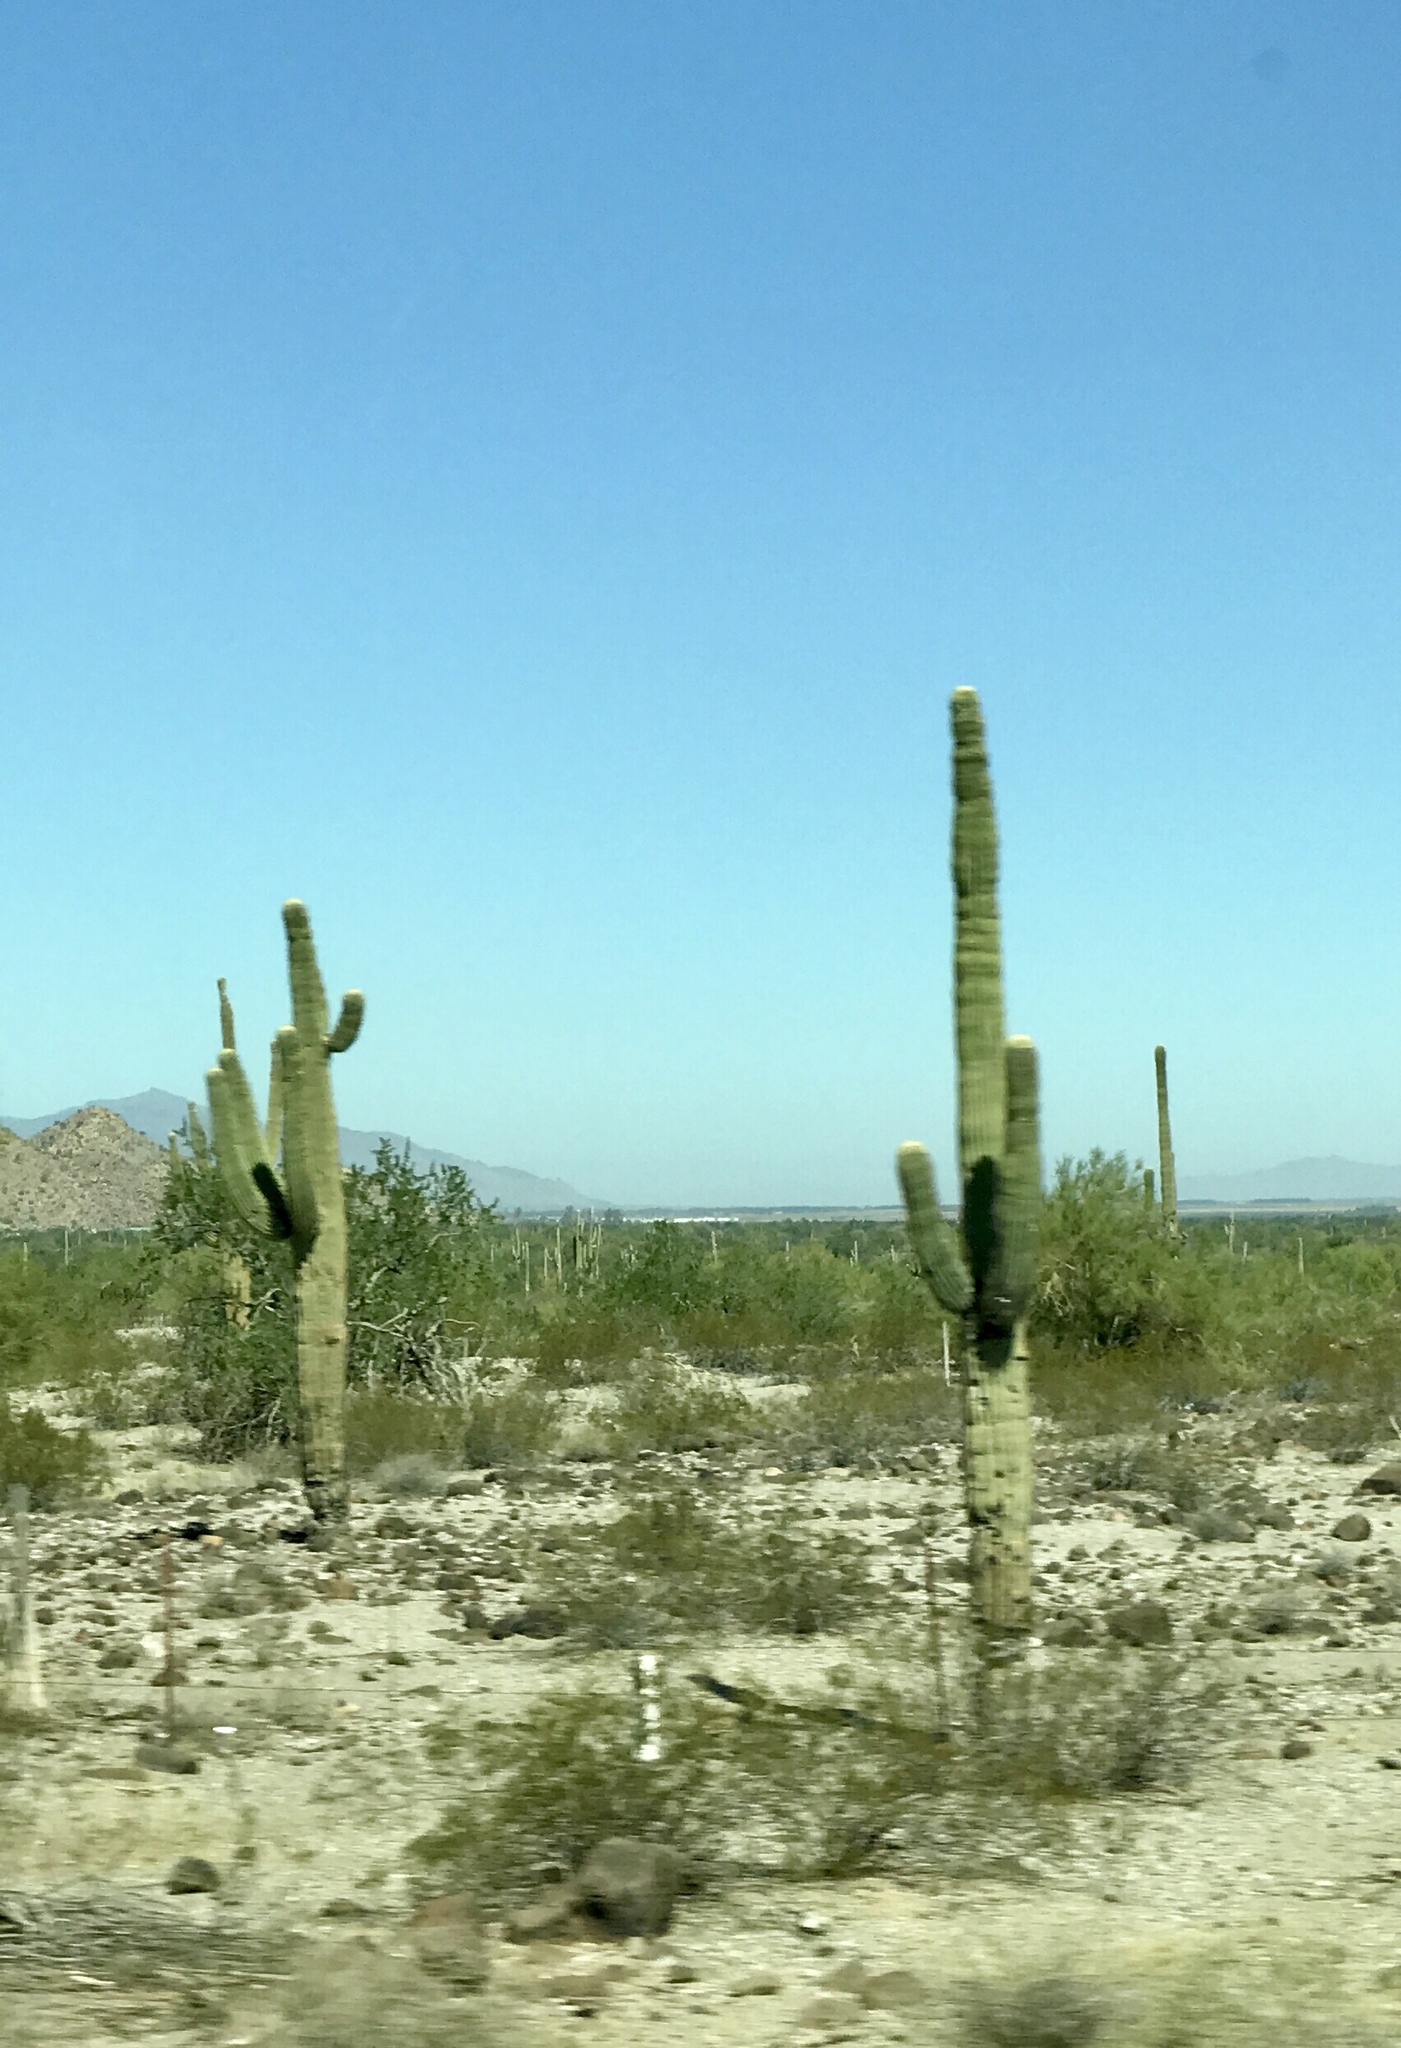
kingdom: Plantae
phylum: Tracheophyta
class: Magnoliopsida
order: Caryophyllales
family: Cactaceae
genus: Carnegiea
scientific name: Carnegiea gigantea
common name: Saguaro
